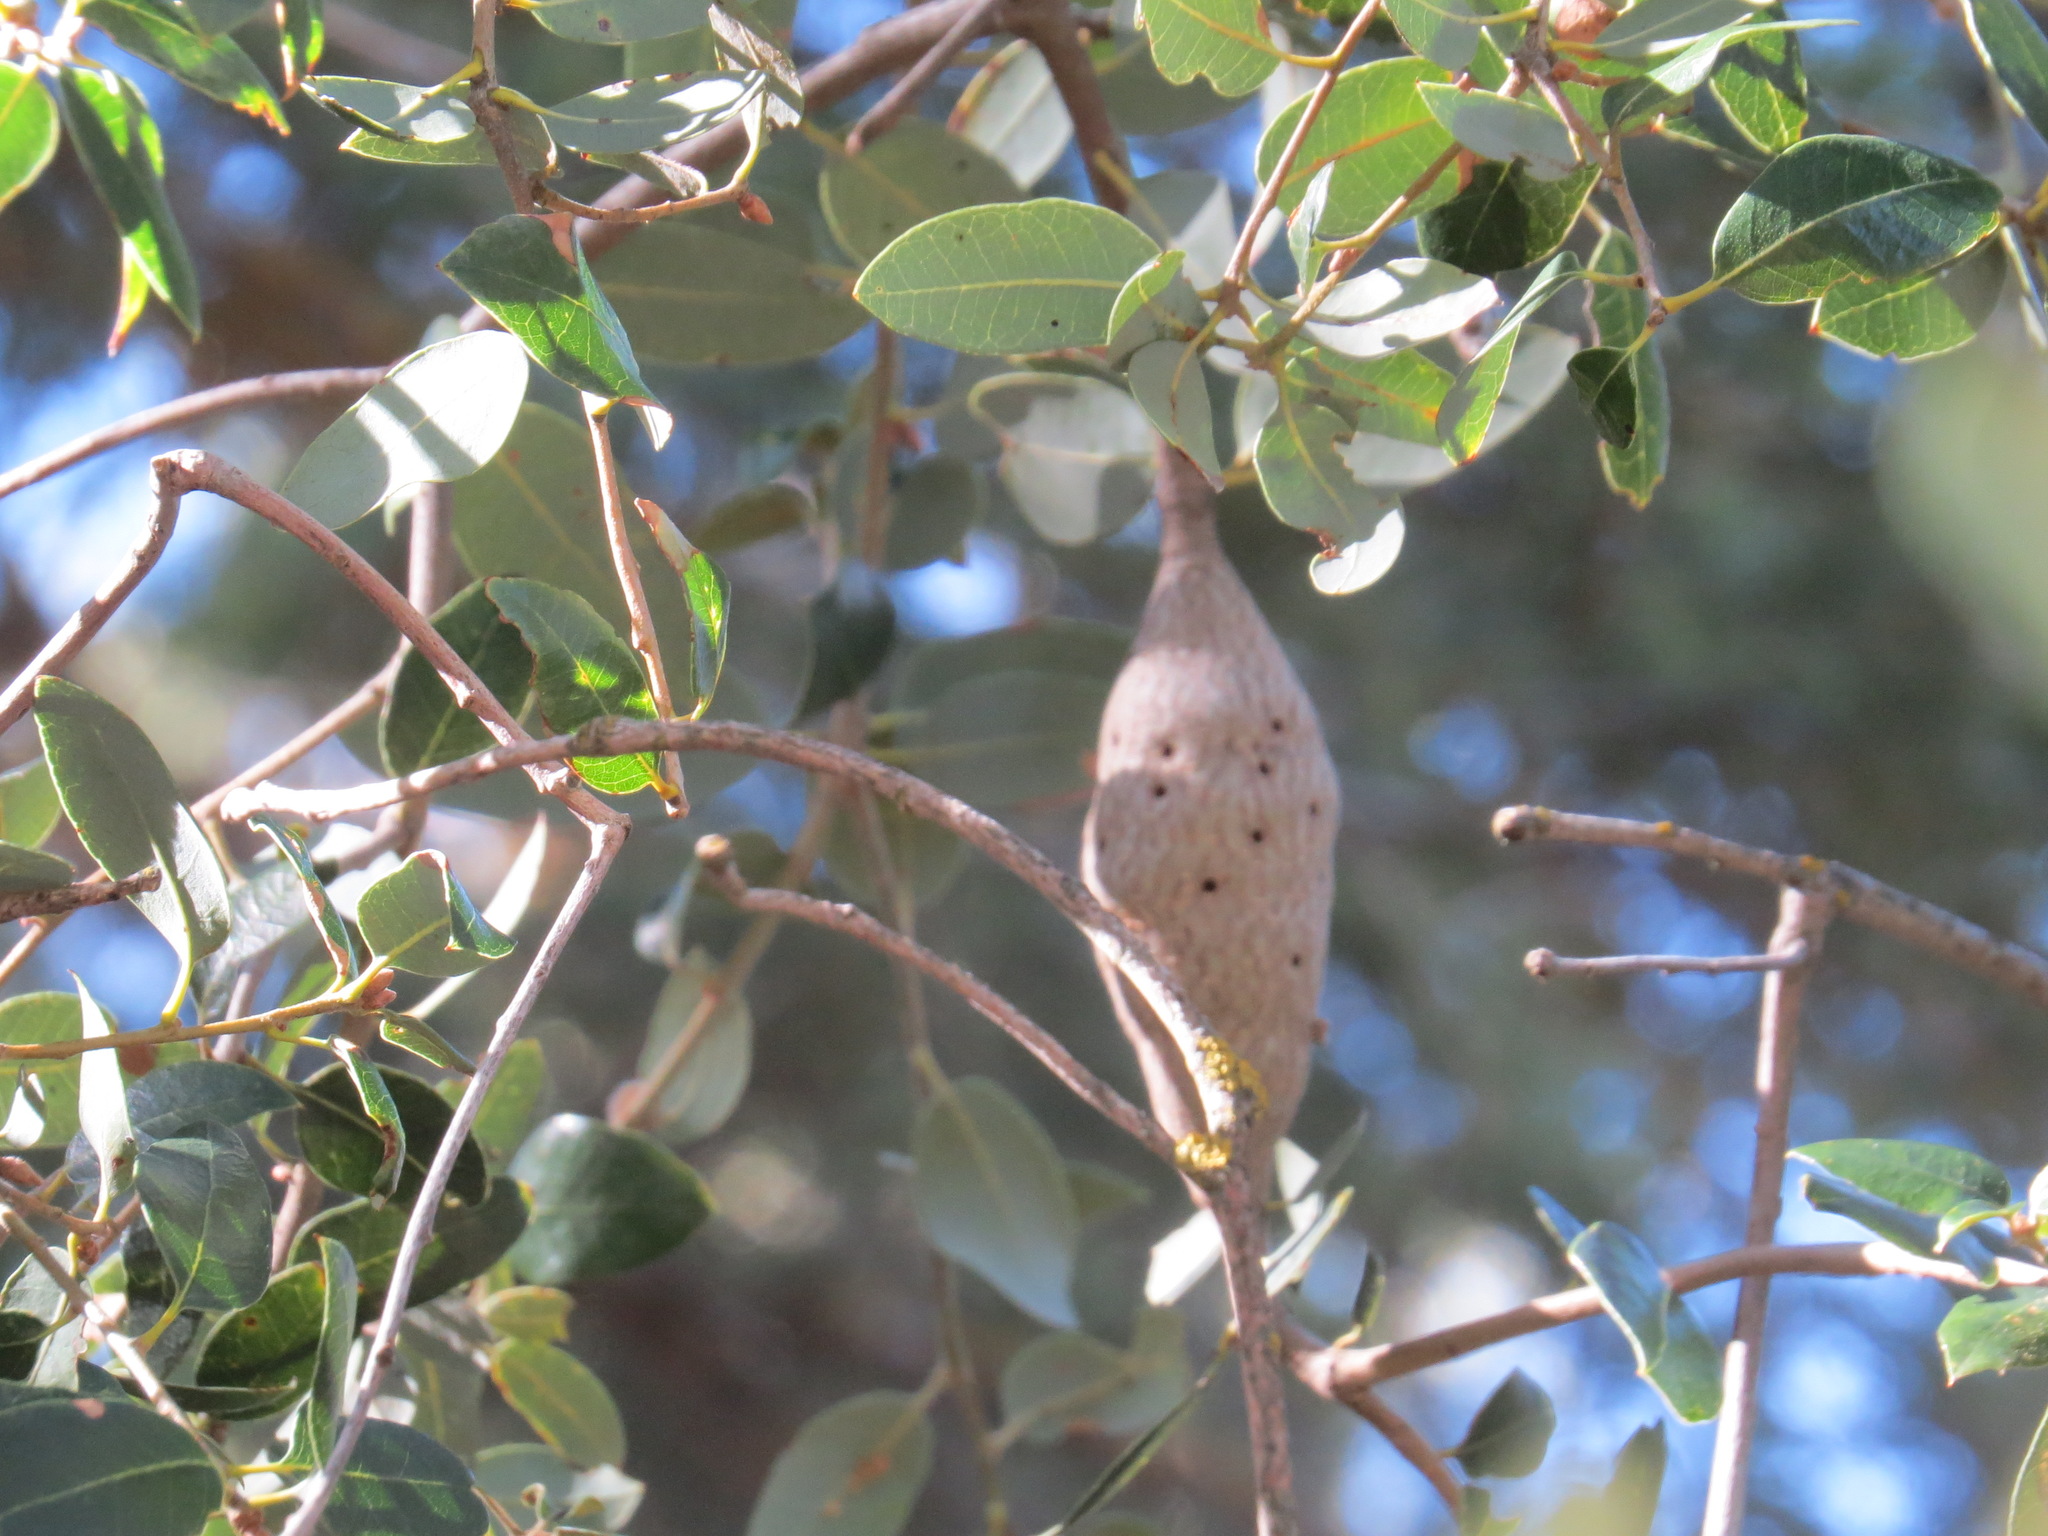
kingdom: Animalia
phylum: Arthropoda
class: Insecta
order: Hymenoptera
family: Cynipidae
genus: Disholcaspis
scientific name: Disholcaspis spectabilis
